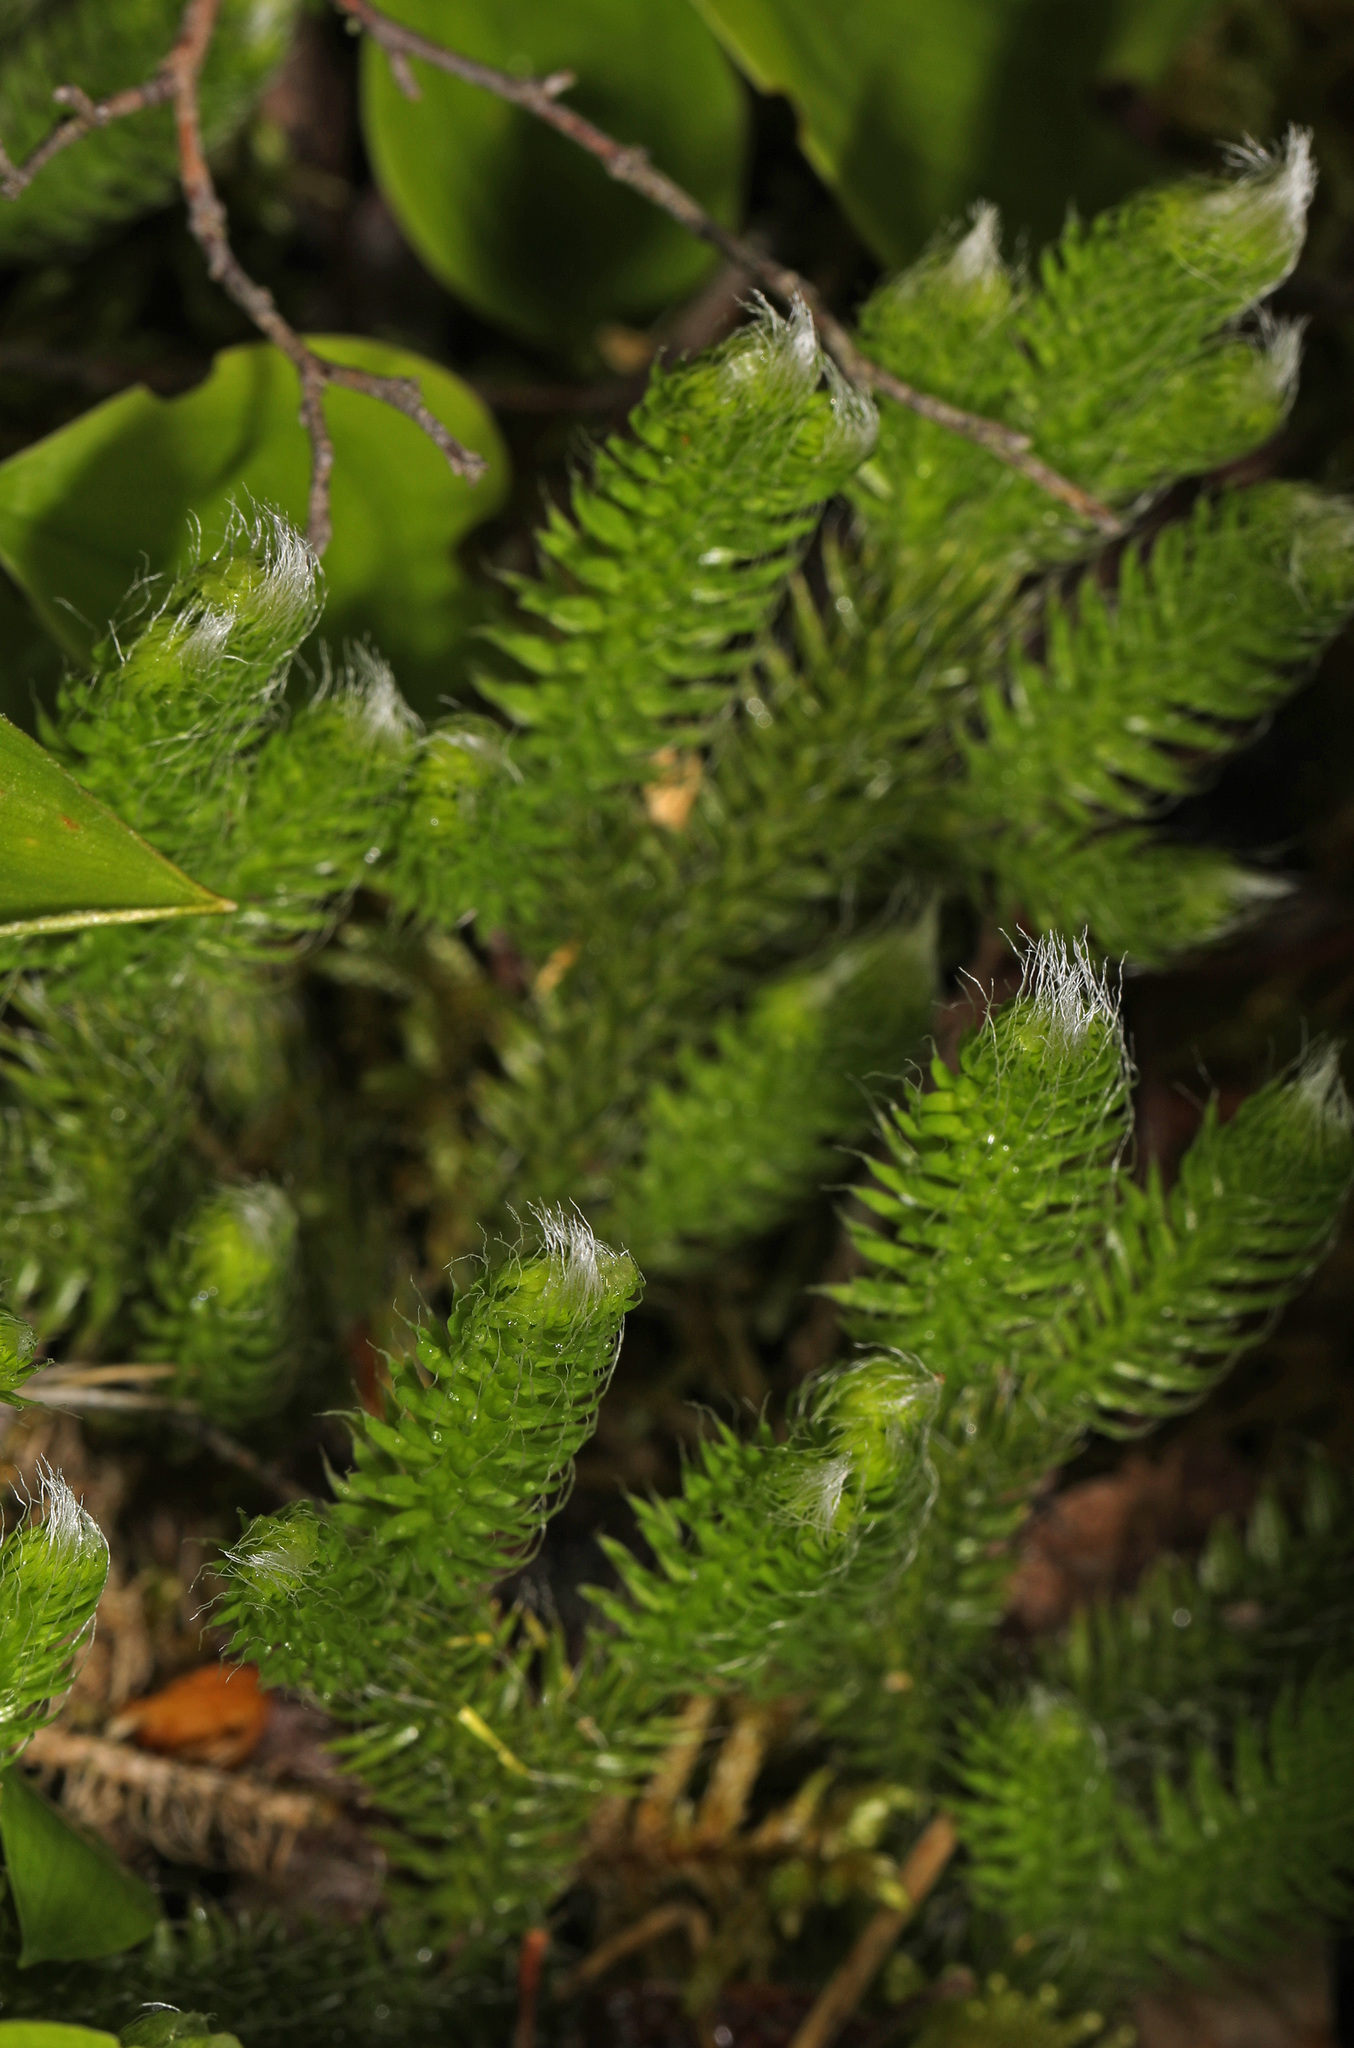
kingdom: Plantae
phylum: Tracheophyta
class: Lycopodiopsida
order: Lycopodiales
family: Lycopodiaceae
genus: Lycopodium
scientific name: Lycopodium clavatum
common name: Stag's-horn clubmoss
